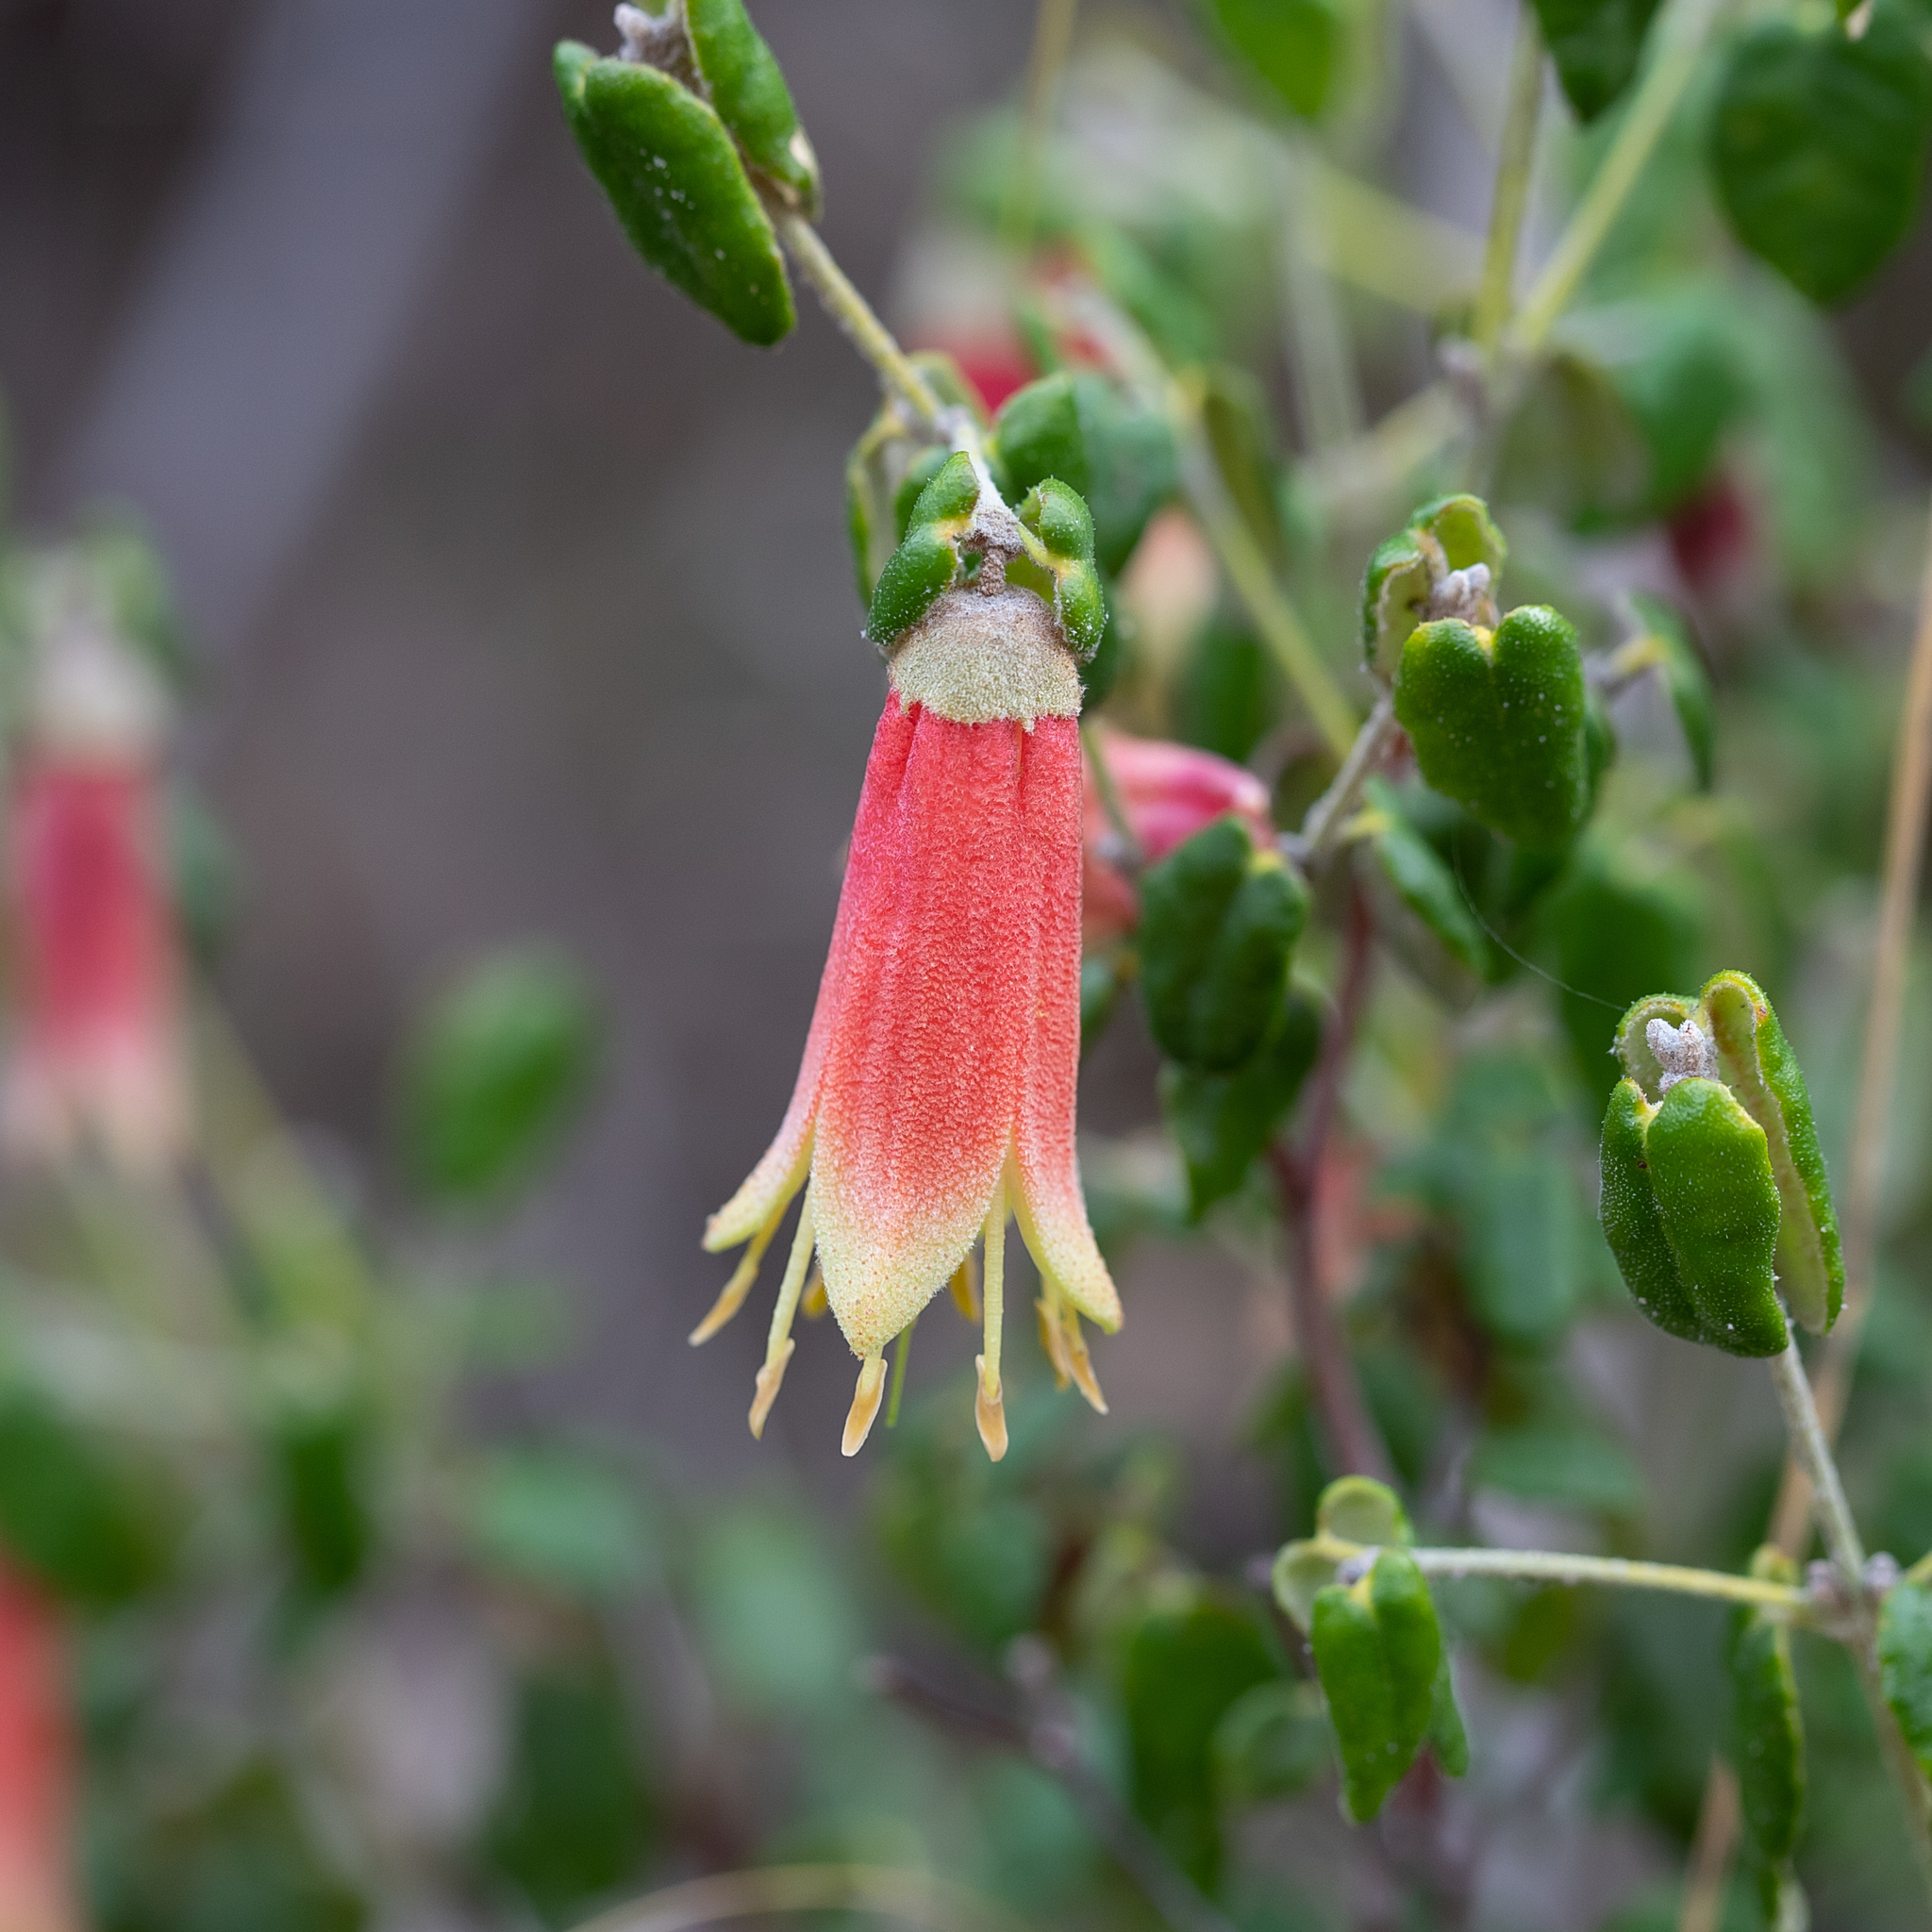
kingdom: Plantae
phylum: Tracheophyta
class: Magnoliopsida
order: Sapindales
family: Rutaceae
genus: Correa
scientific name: Correa reflexa
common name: Common correa
